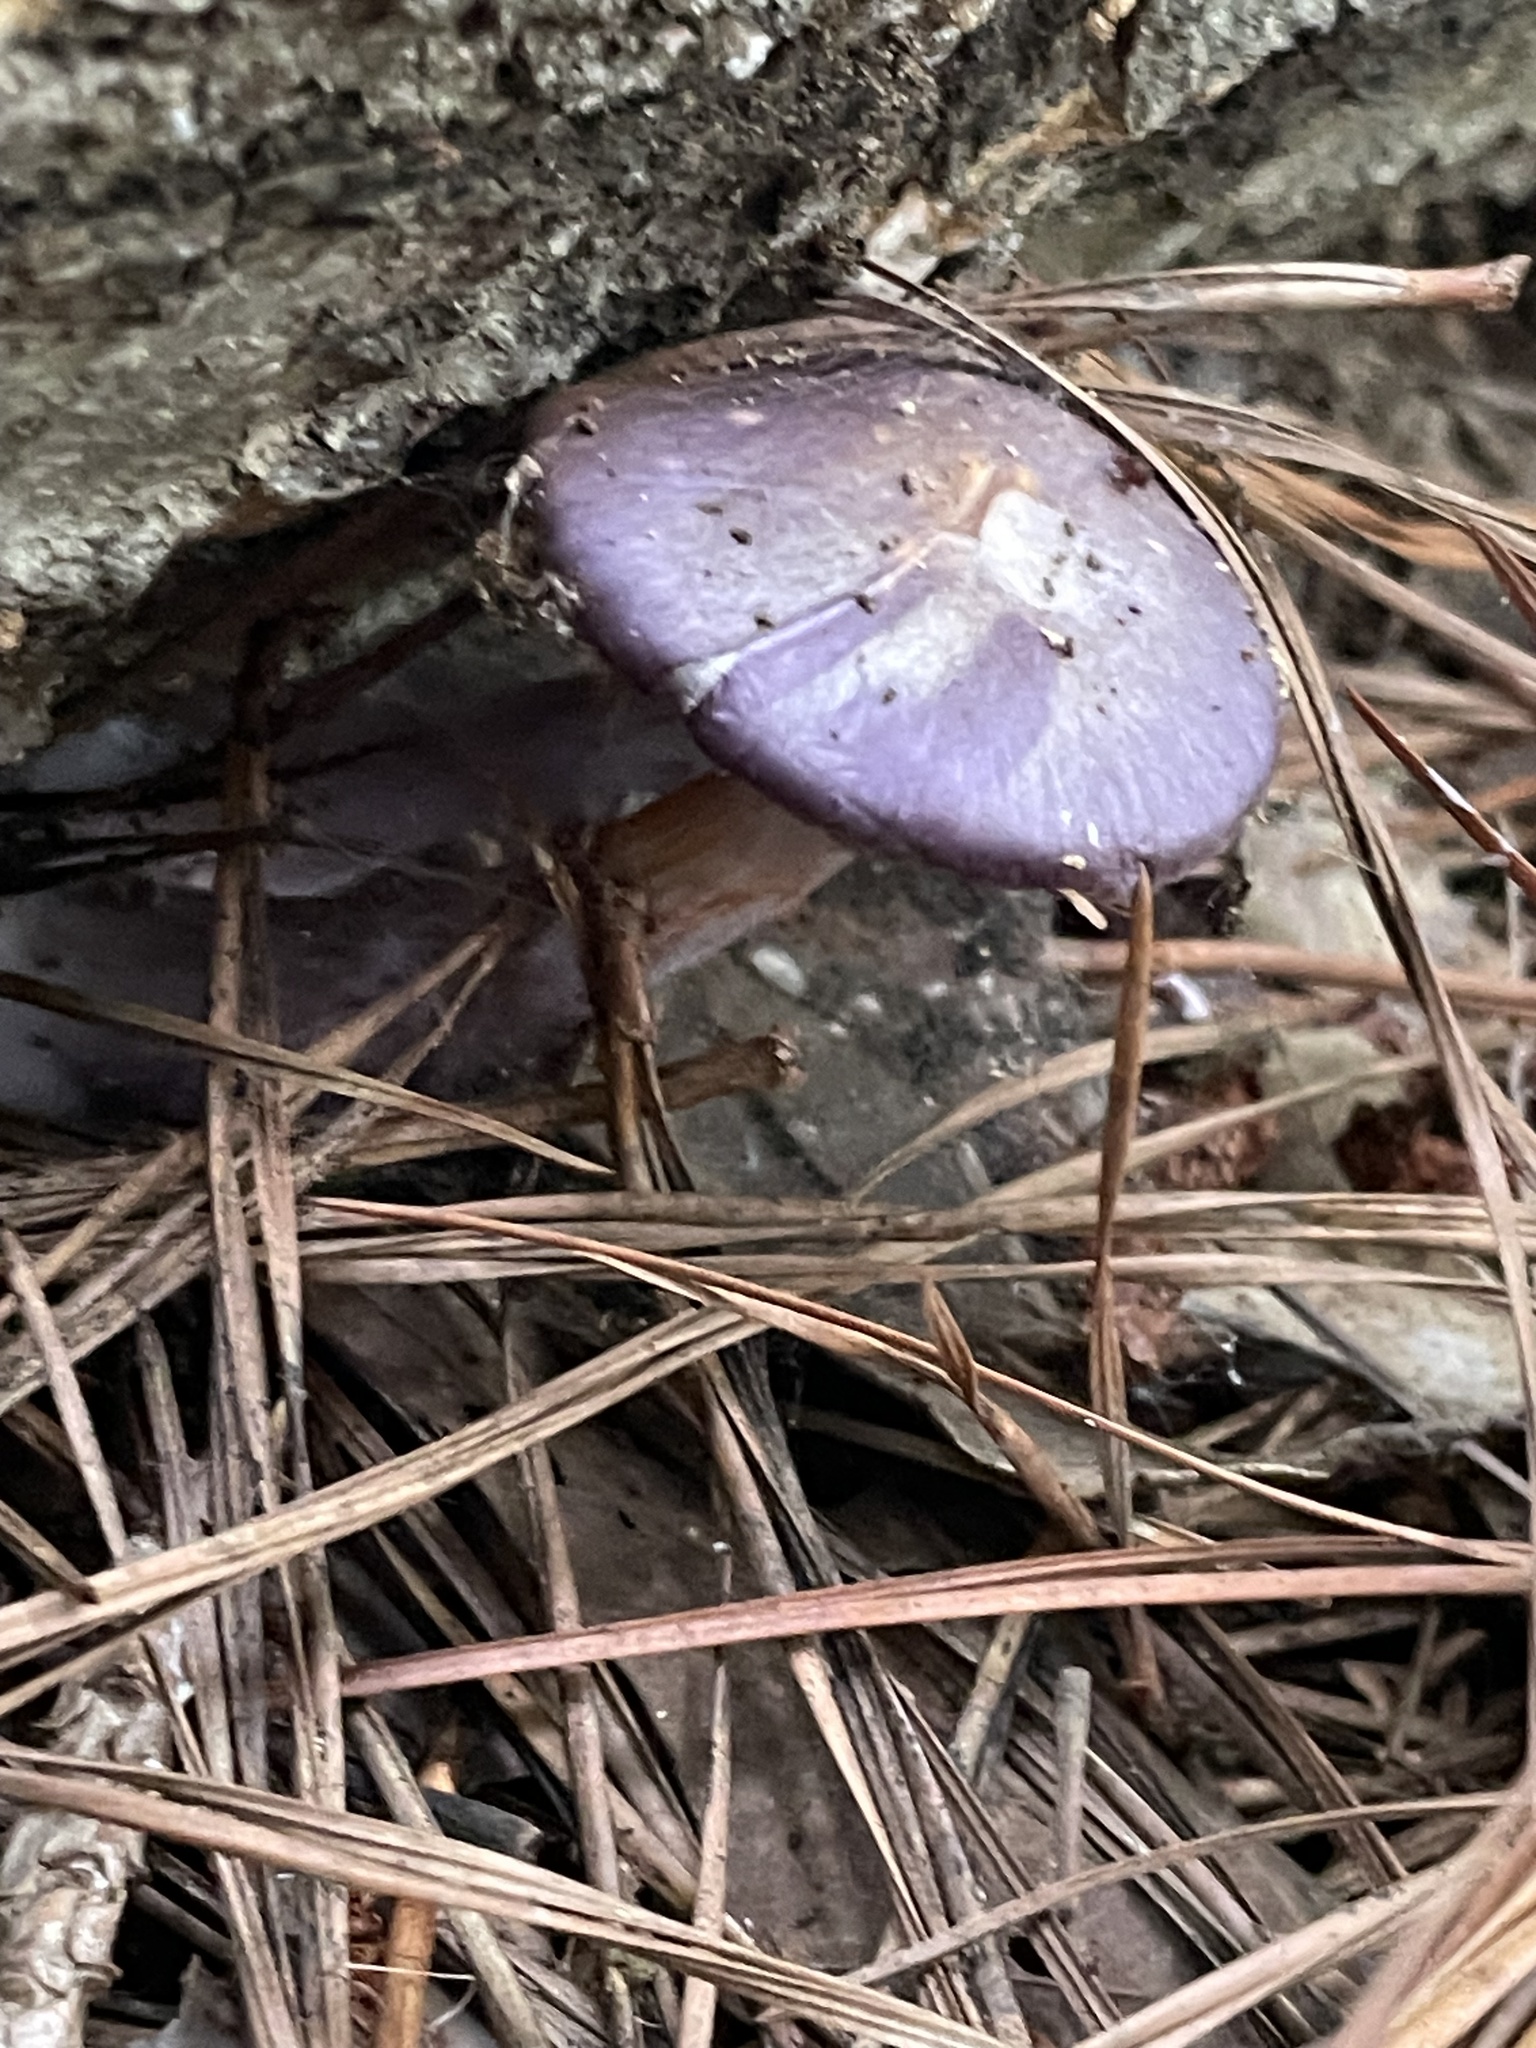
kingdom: Fungi
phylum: Basidiomycota
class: Agaricomycetes
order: Agaricales
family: Cortinariaceae
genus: Cortinarius
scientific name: Cortinarius iodes
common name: Viscid violet cort
